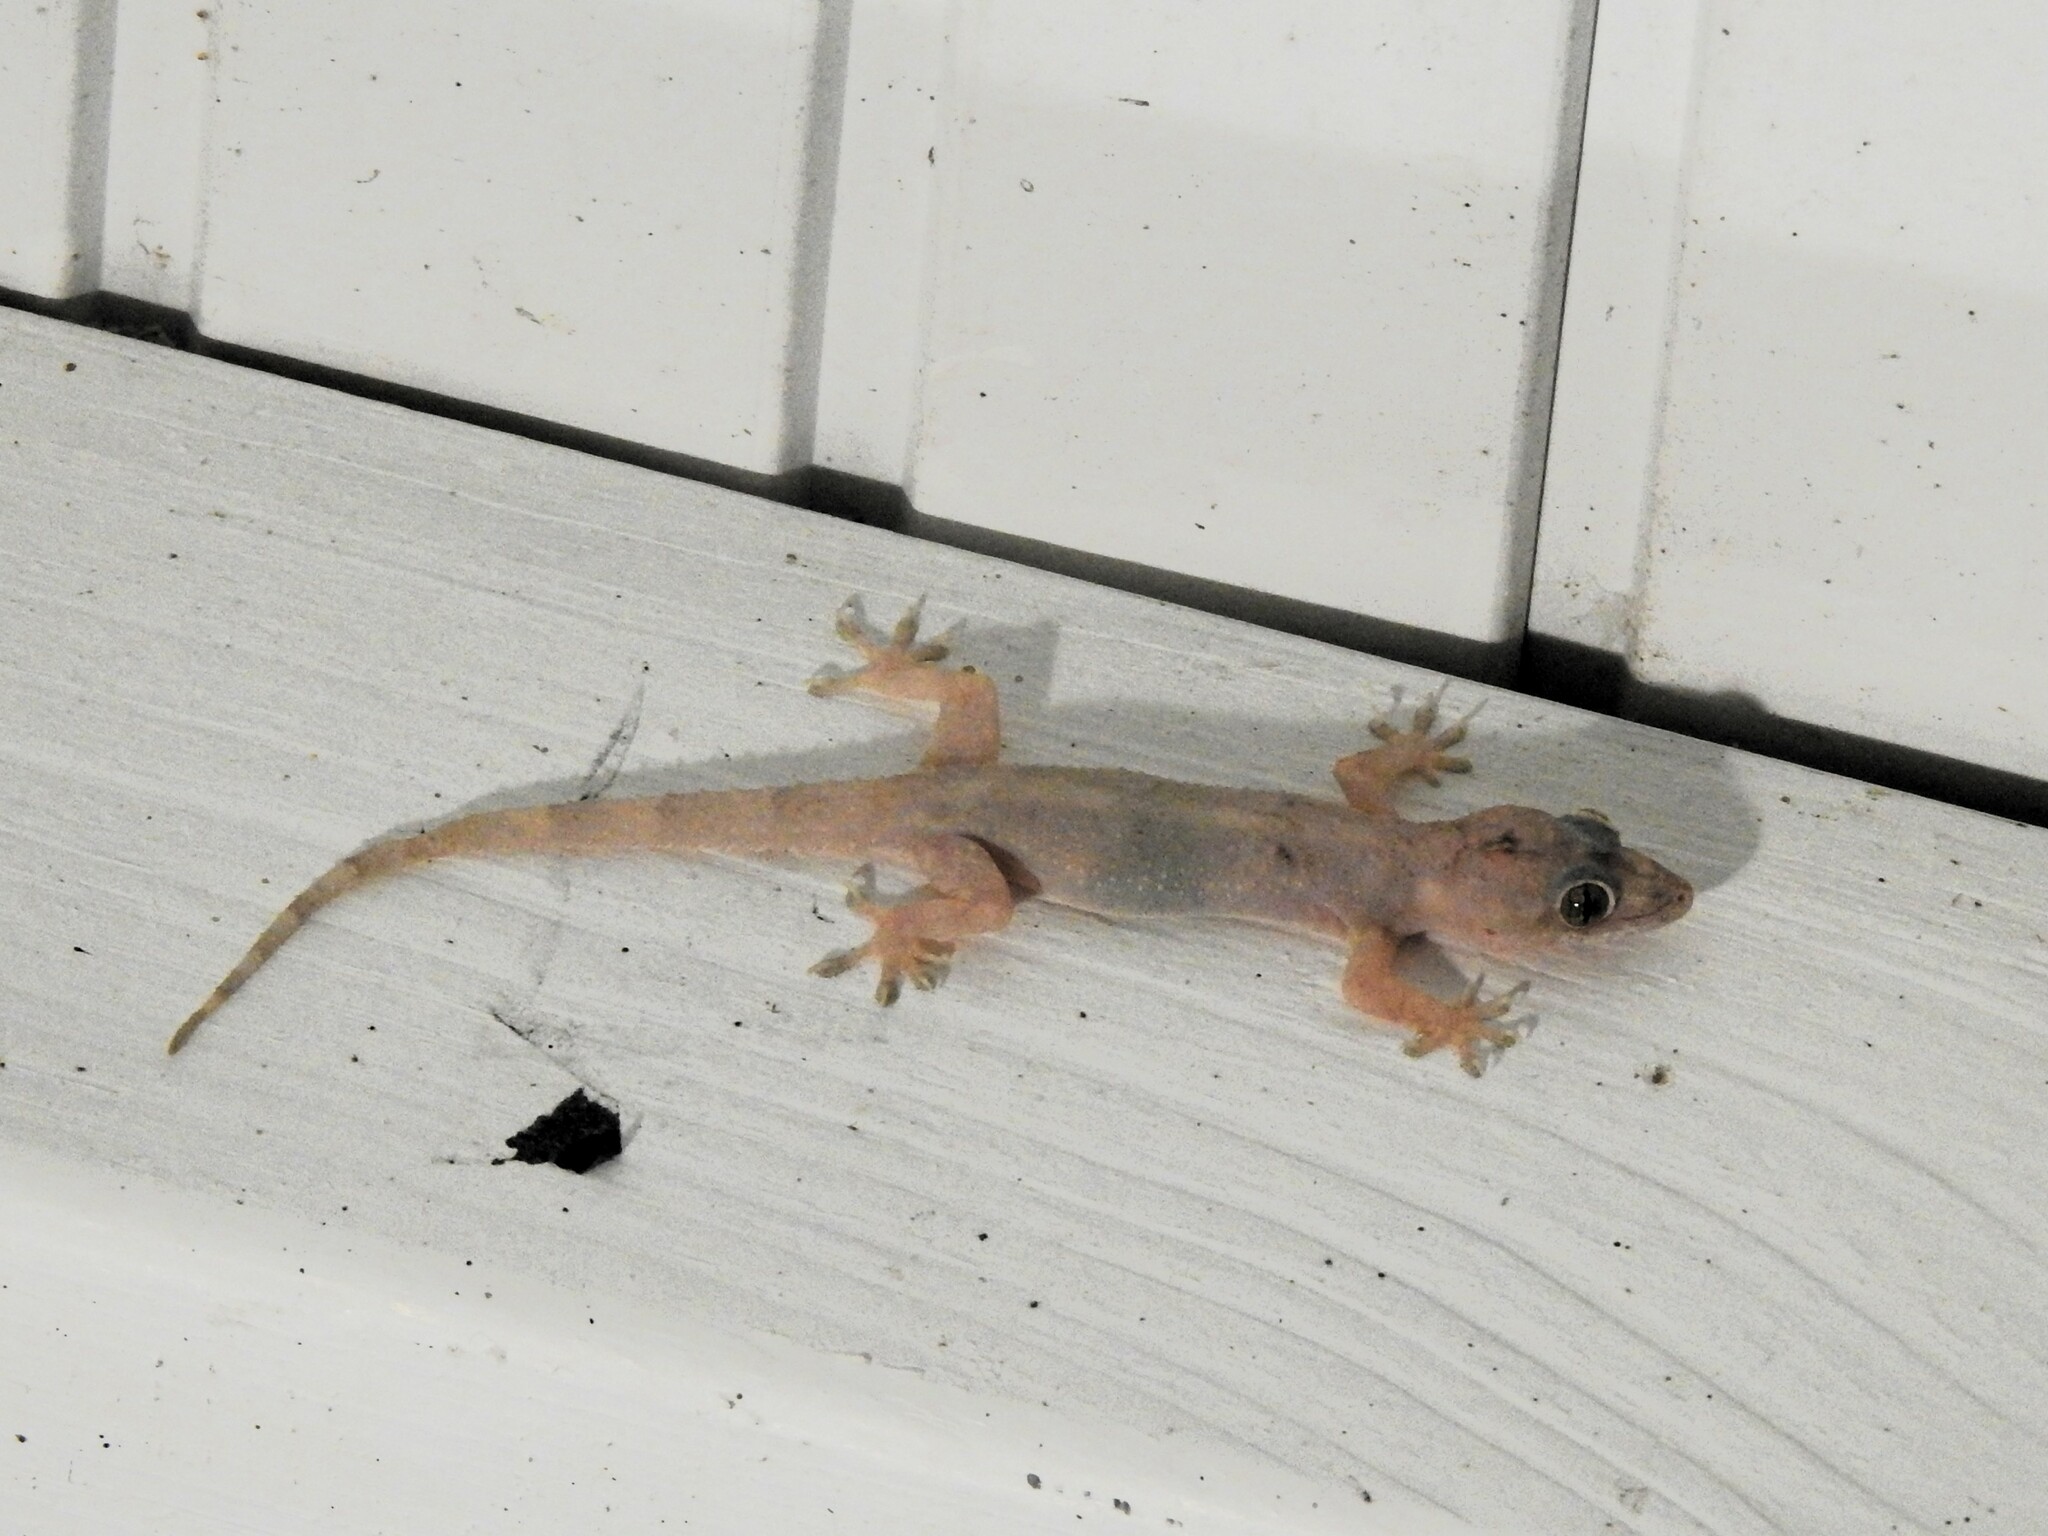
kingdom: Animalia
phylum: Chordata
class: Squamata
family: Gekkonidae
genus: Hemidactylus
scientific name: Hemidactylus mabouia
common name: House gecko
